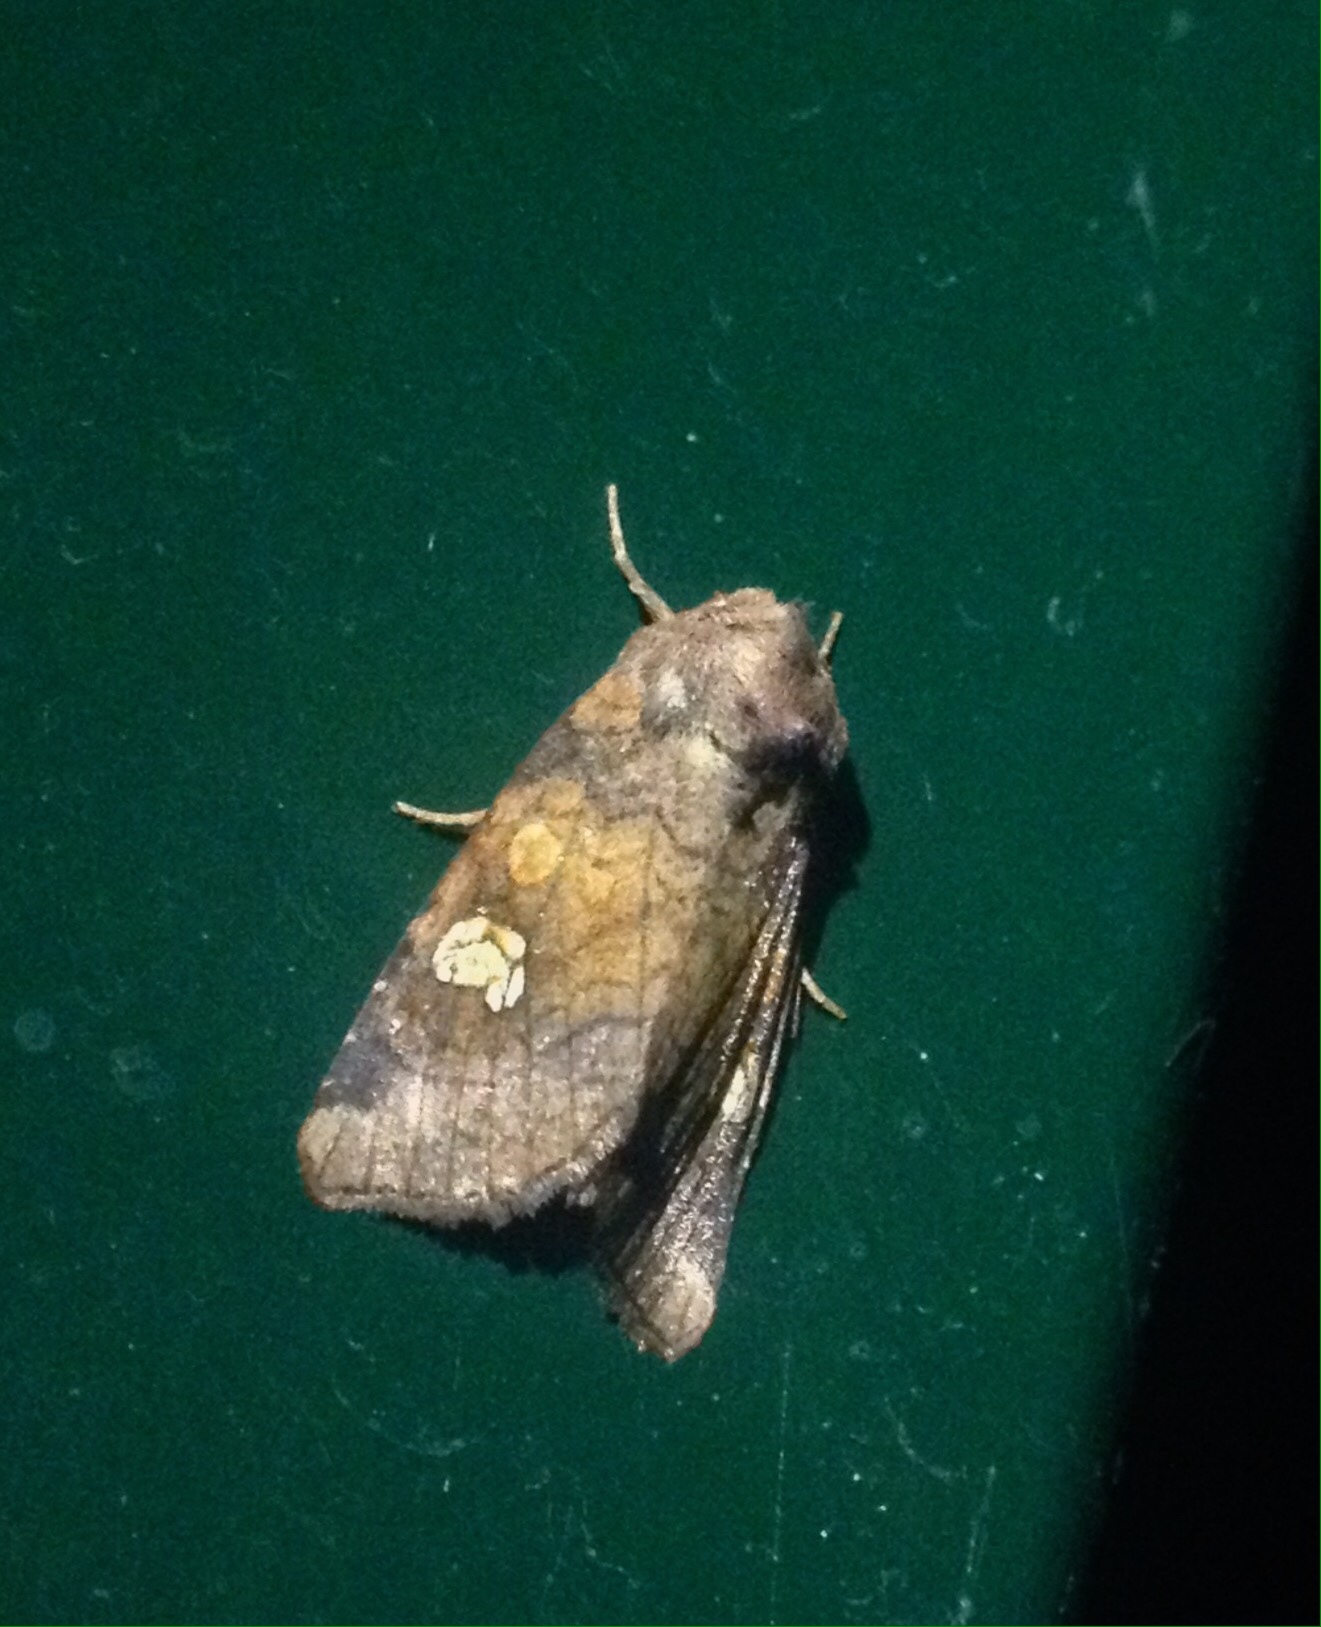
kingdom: Animalia
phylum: Arthropoda
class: Insecta
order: Lepidoptera
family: Noctuidae
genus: Amphipoea
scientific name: Amphipoea oculea
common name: Ear moth
